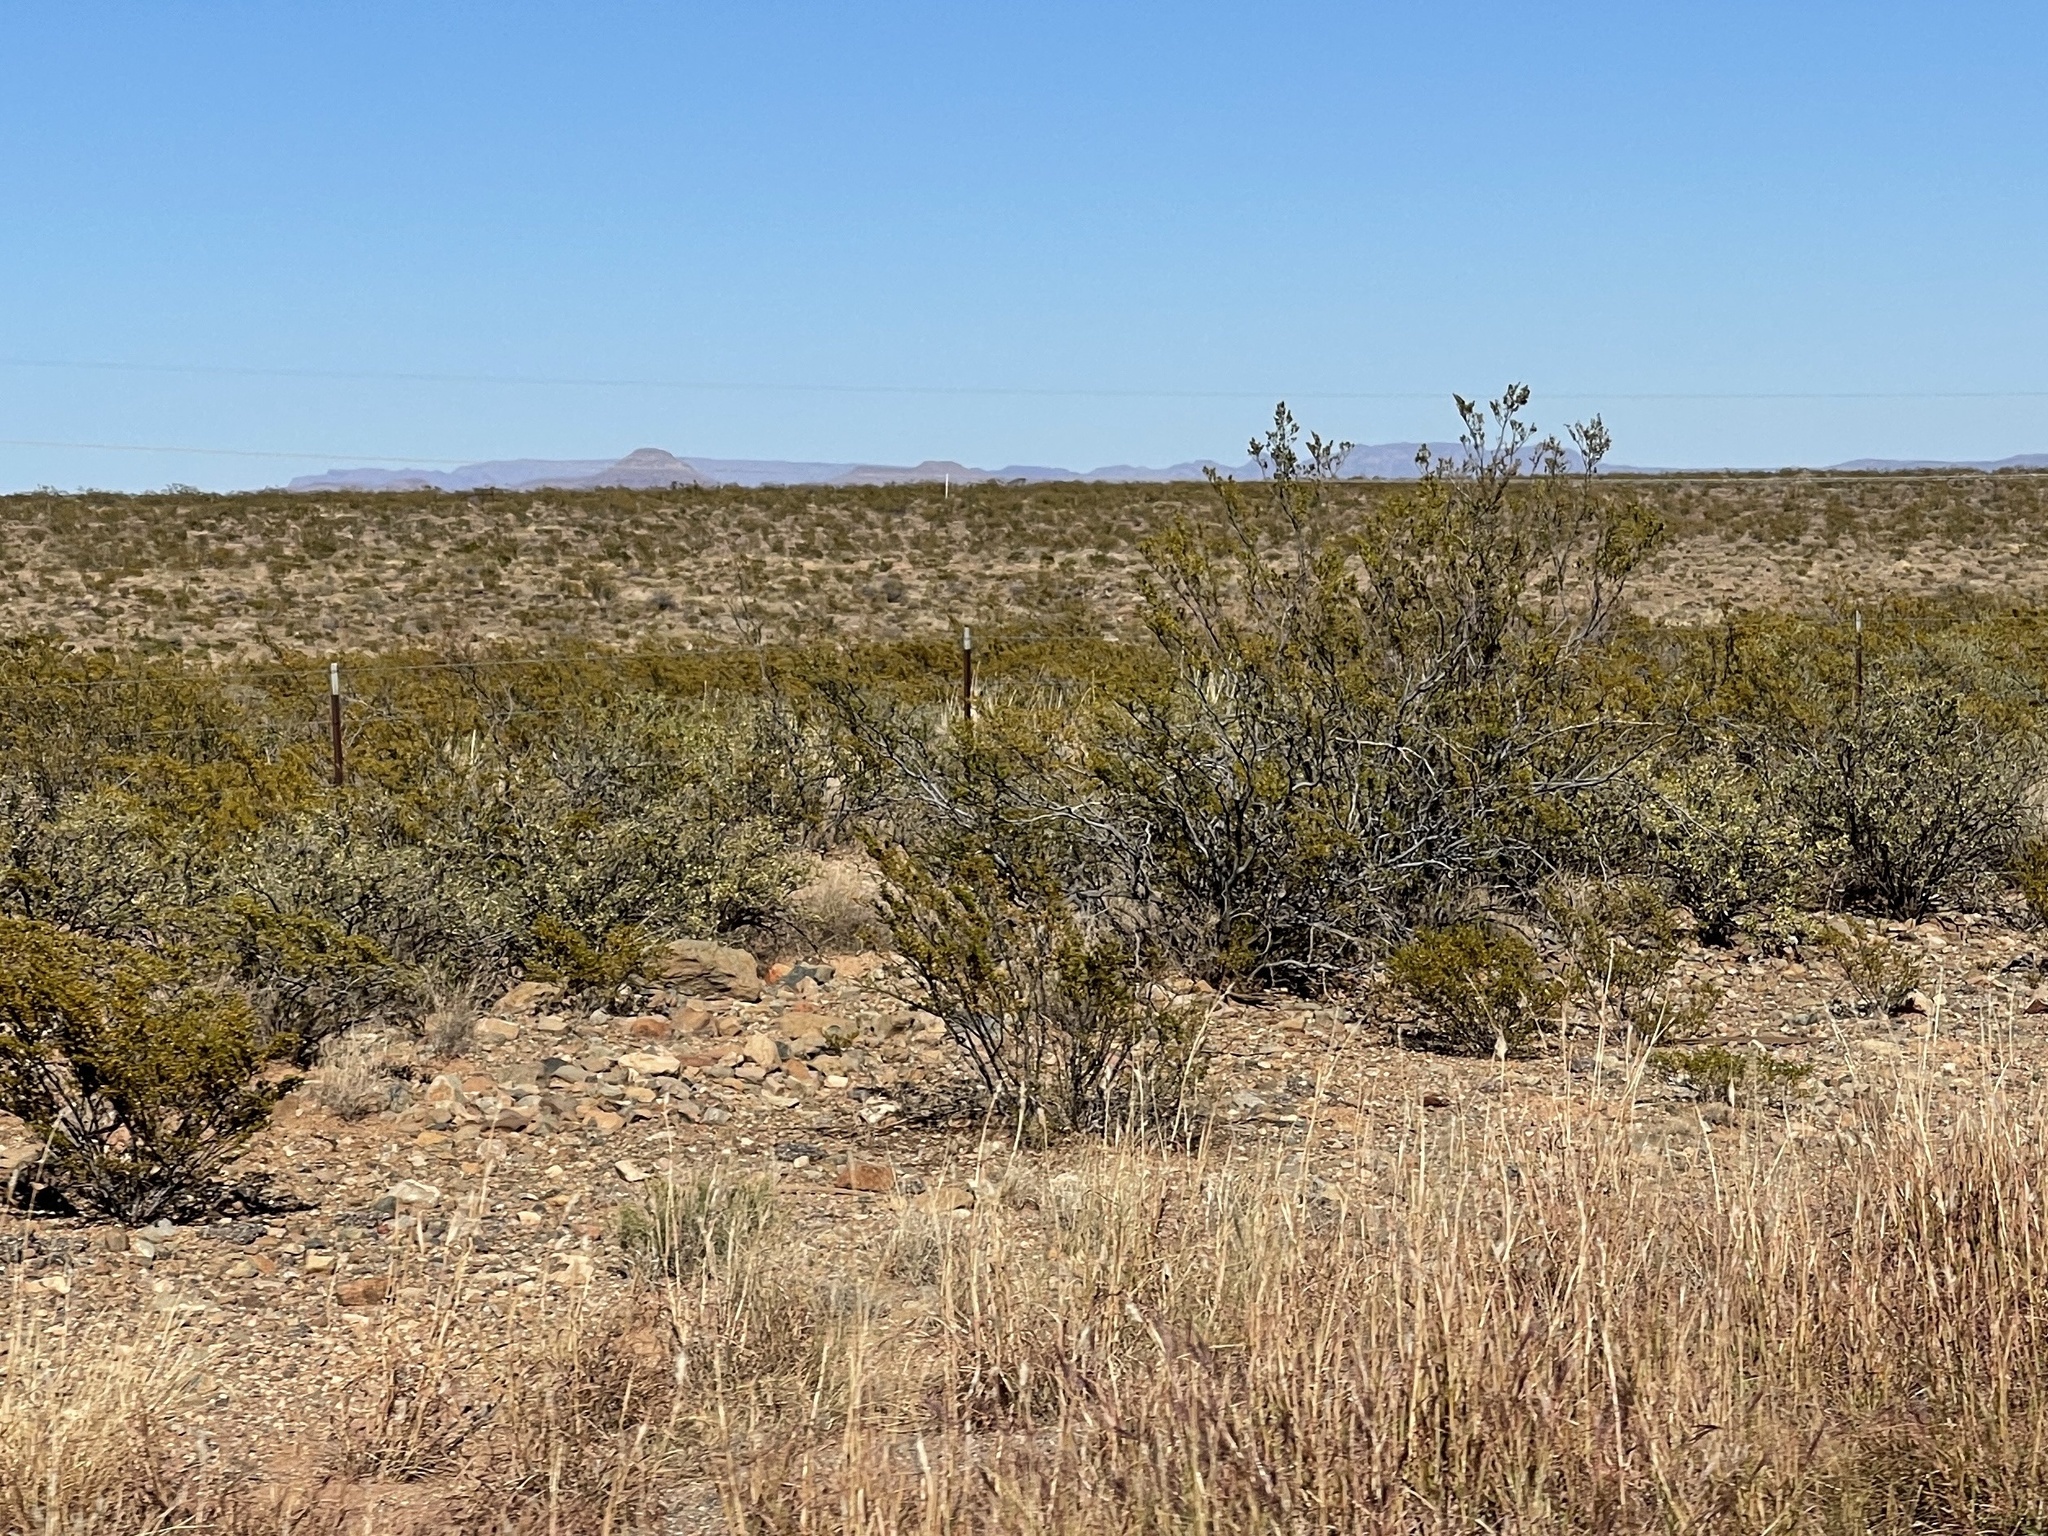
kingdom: Plantae
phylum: Tracheophyta
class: Magnoliopsida
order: Zygophyllales
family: Zygophyllaceae
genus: Larrea
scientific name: Larrea tridentata
